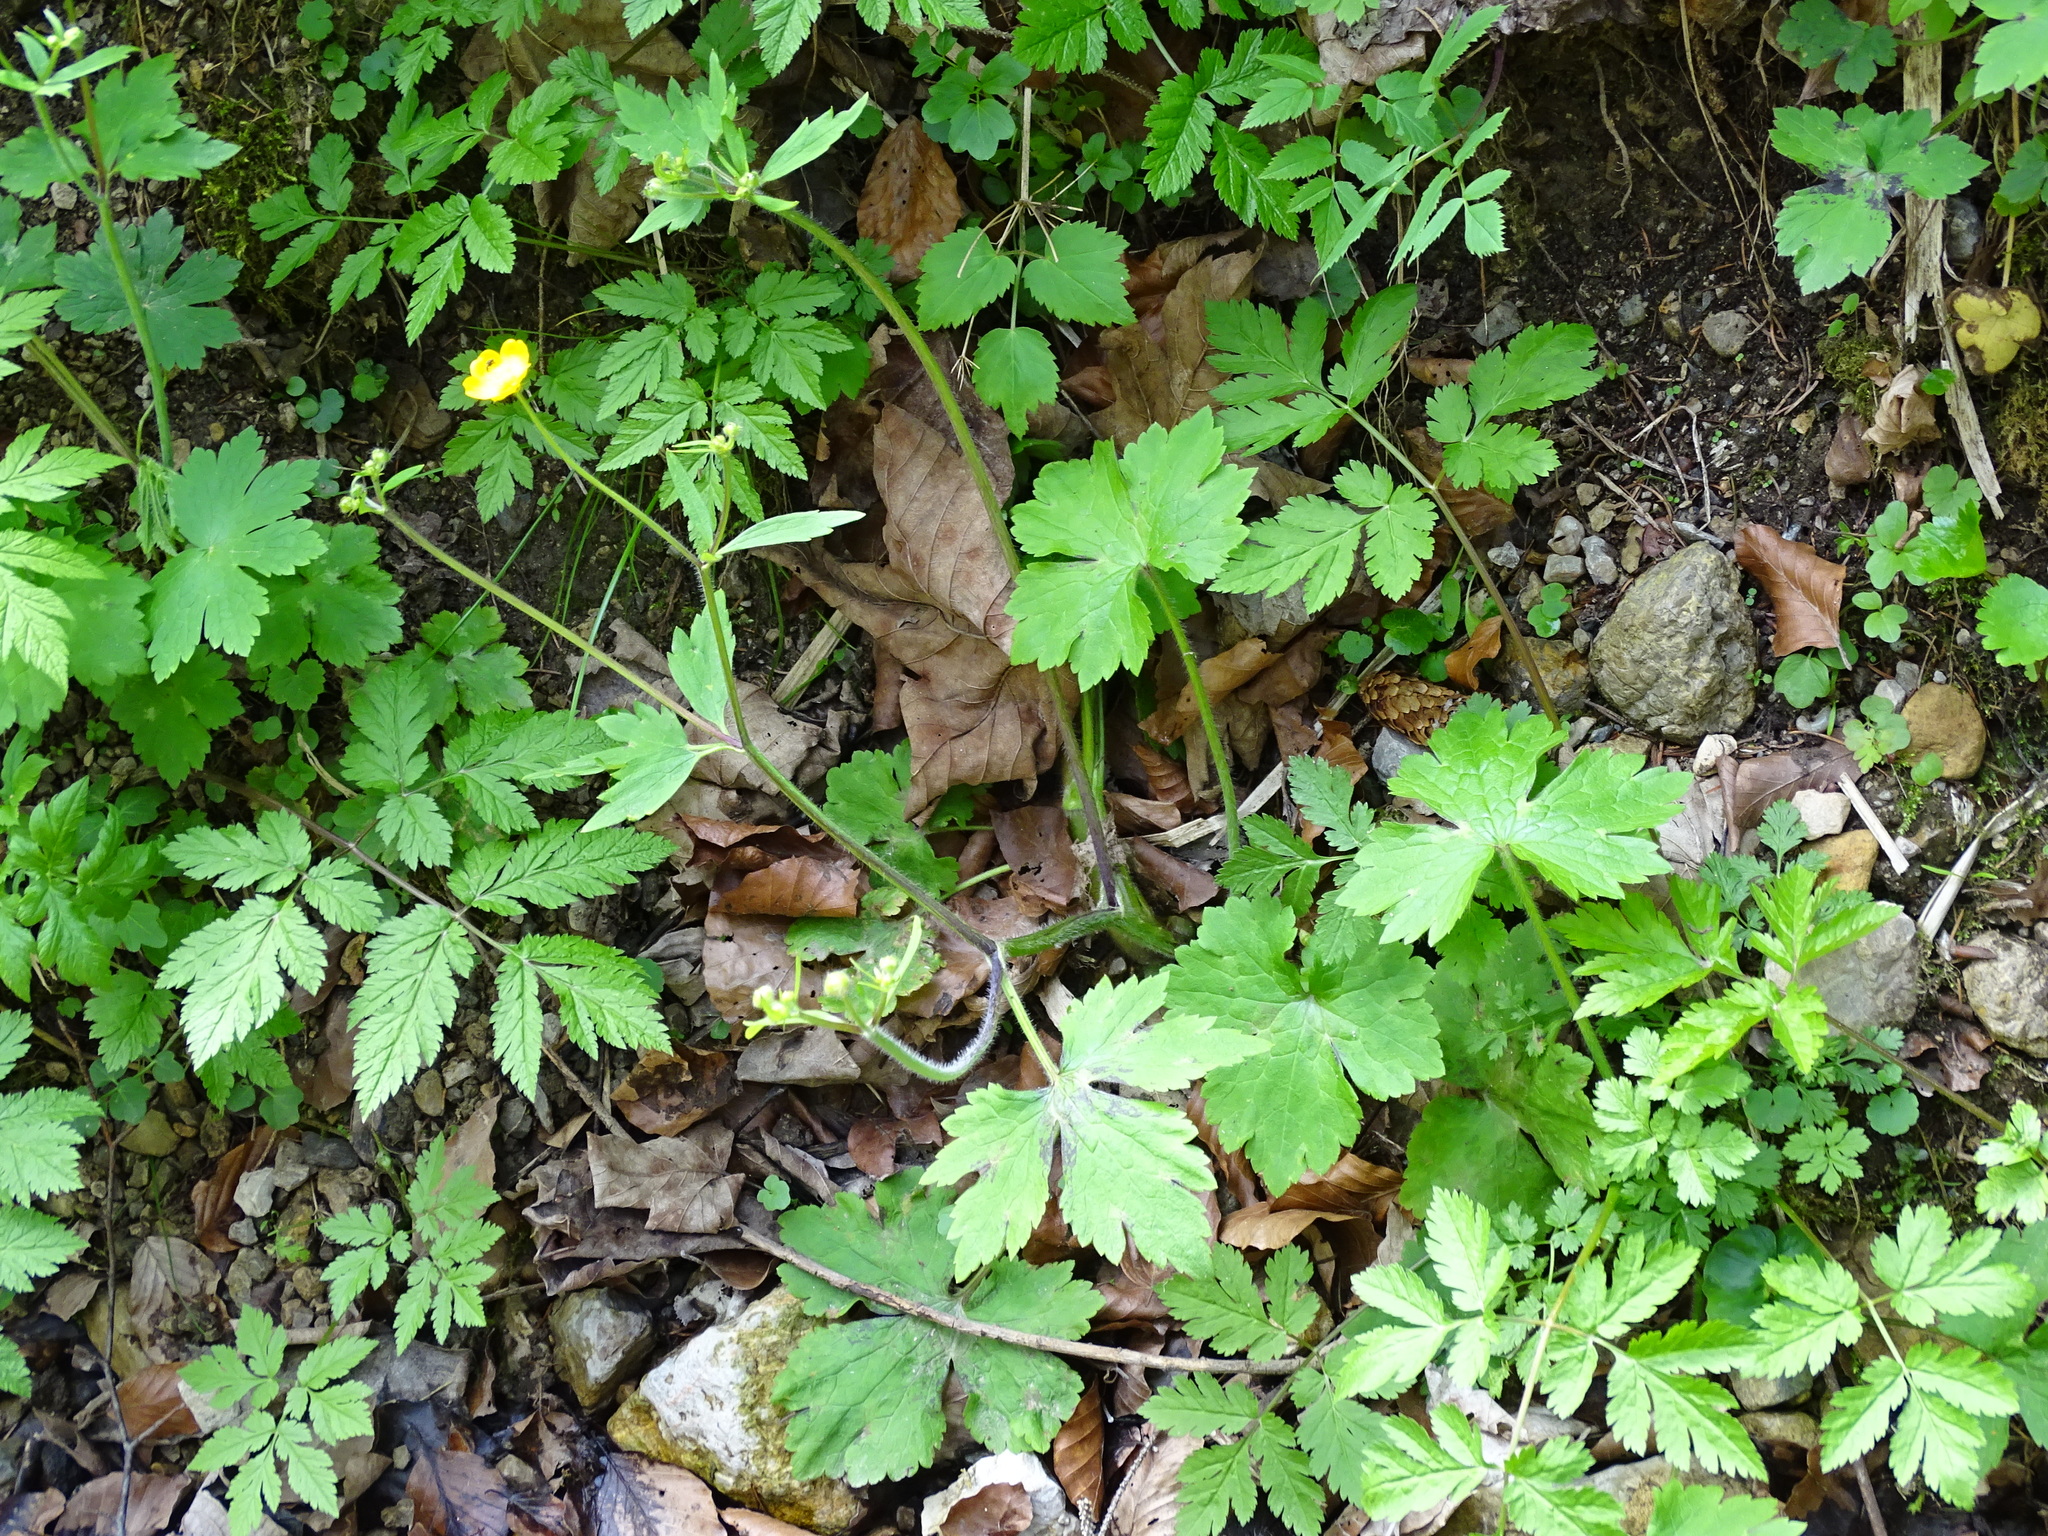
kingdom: Plantae
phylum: Tracheophyta
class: Magnoliopsida
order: Ranunculales
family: Ranunculaceae
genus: Ranunculus
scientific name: Ranunculus lanuginosus
